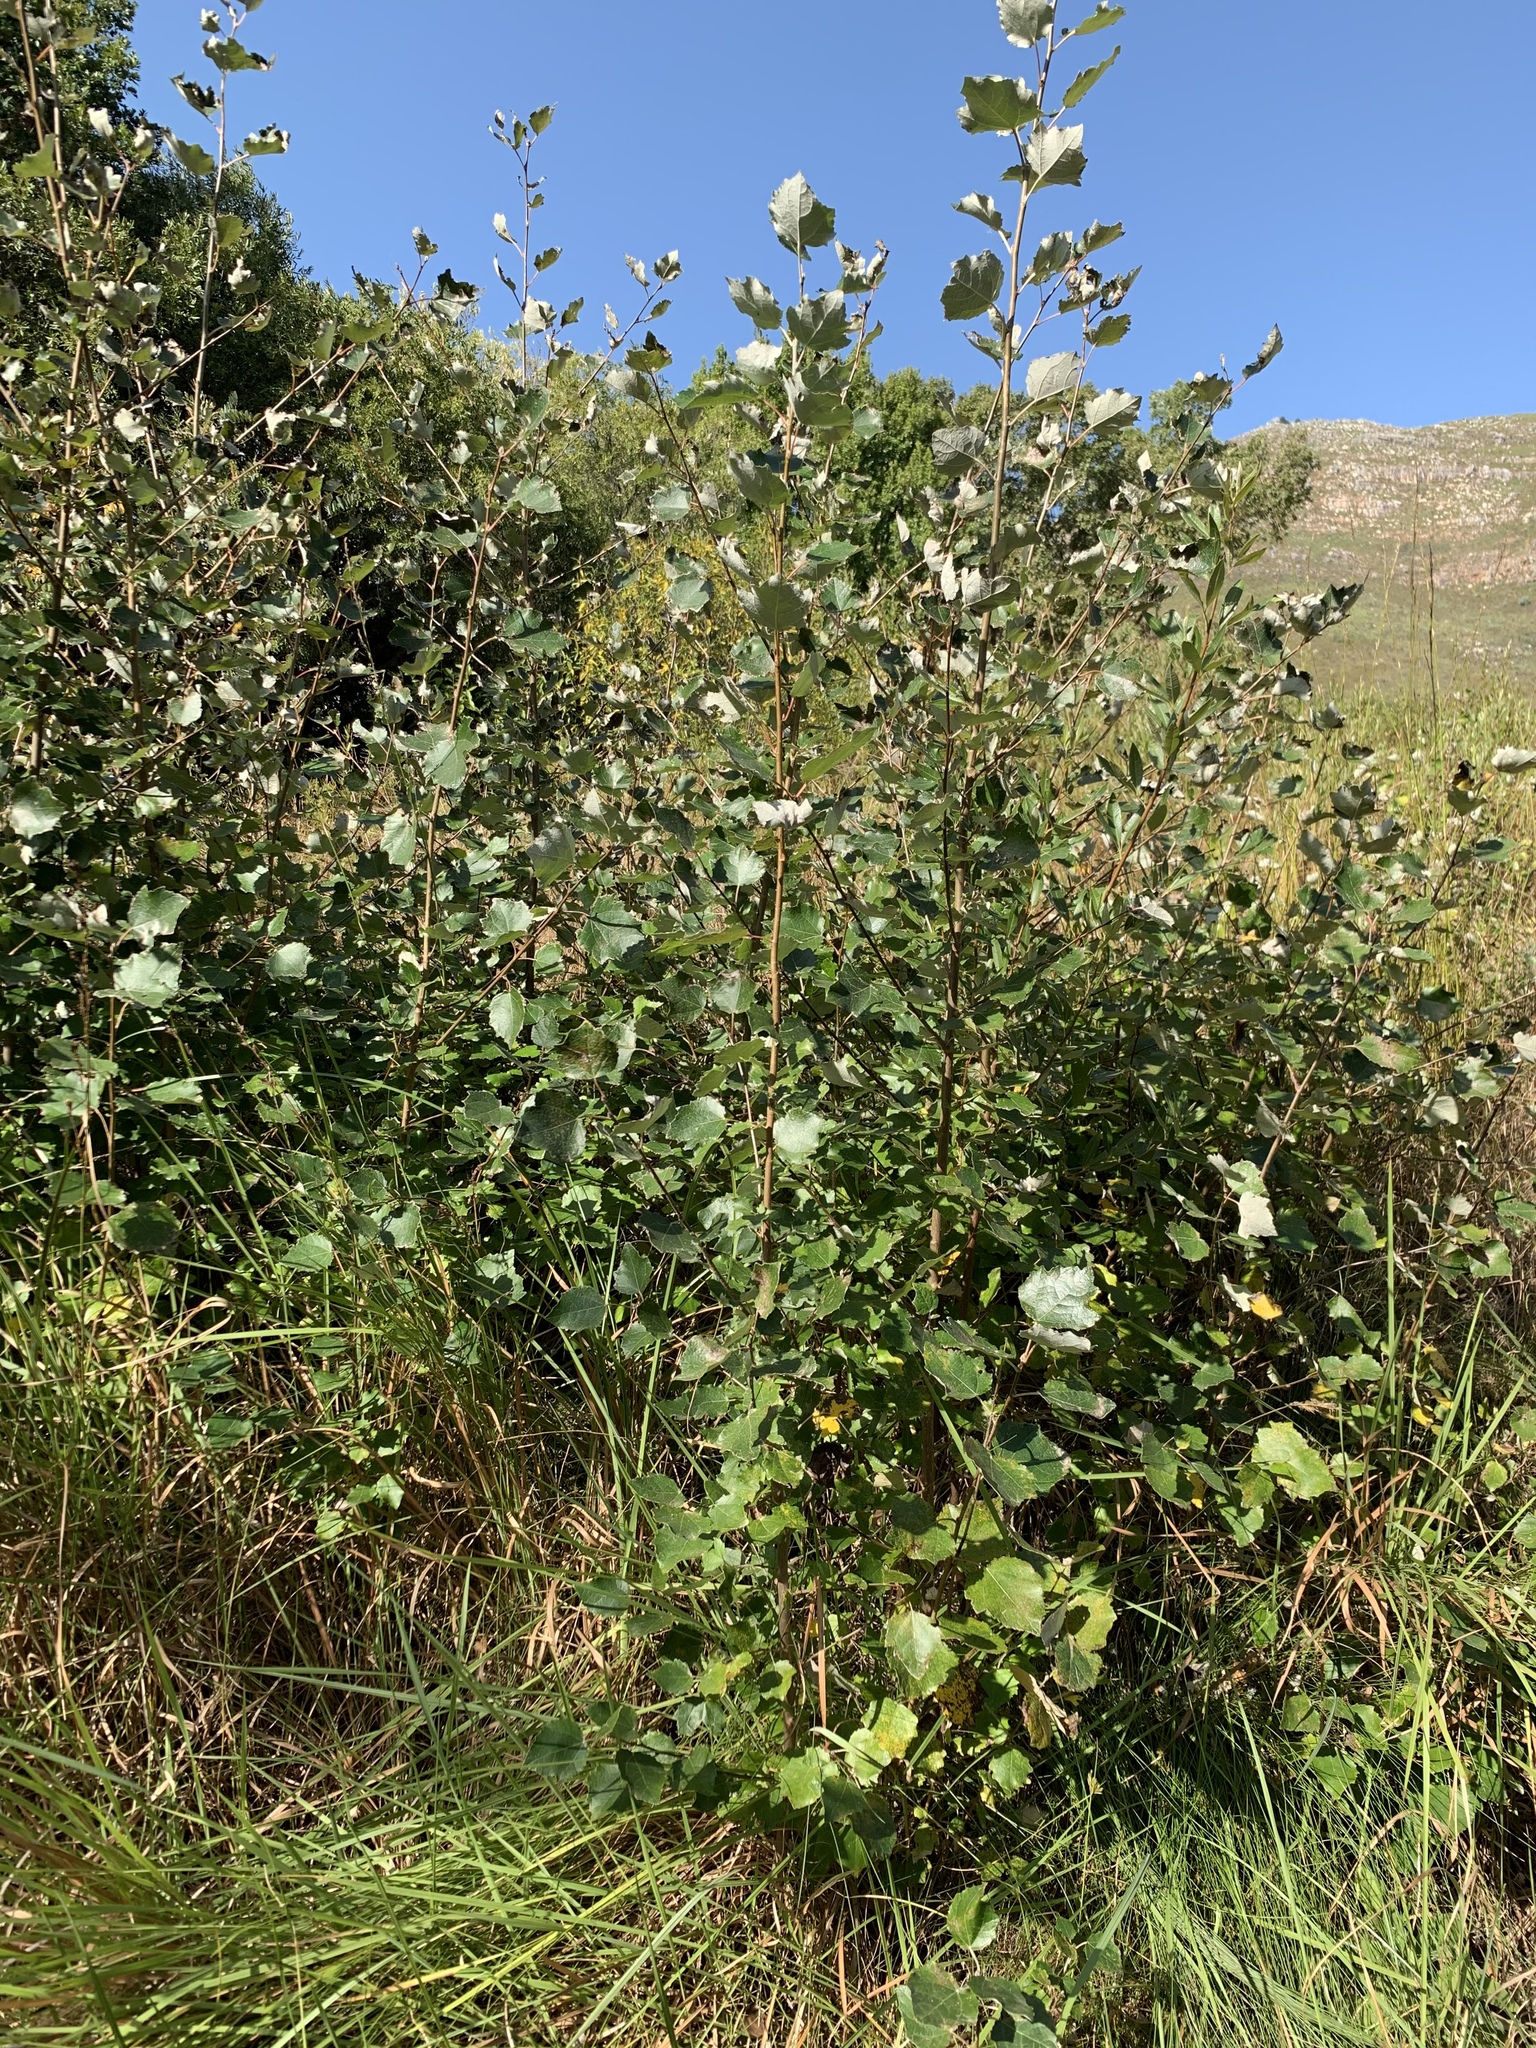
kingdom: Plantae
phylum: Tracheophyta
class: Magnoliopsida
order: Malpighiales
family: Salicaceae
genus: Populus
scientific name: Populus canescens
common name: Gray poplar
